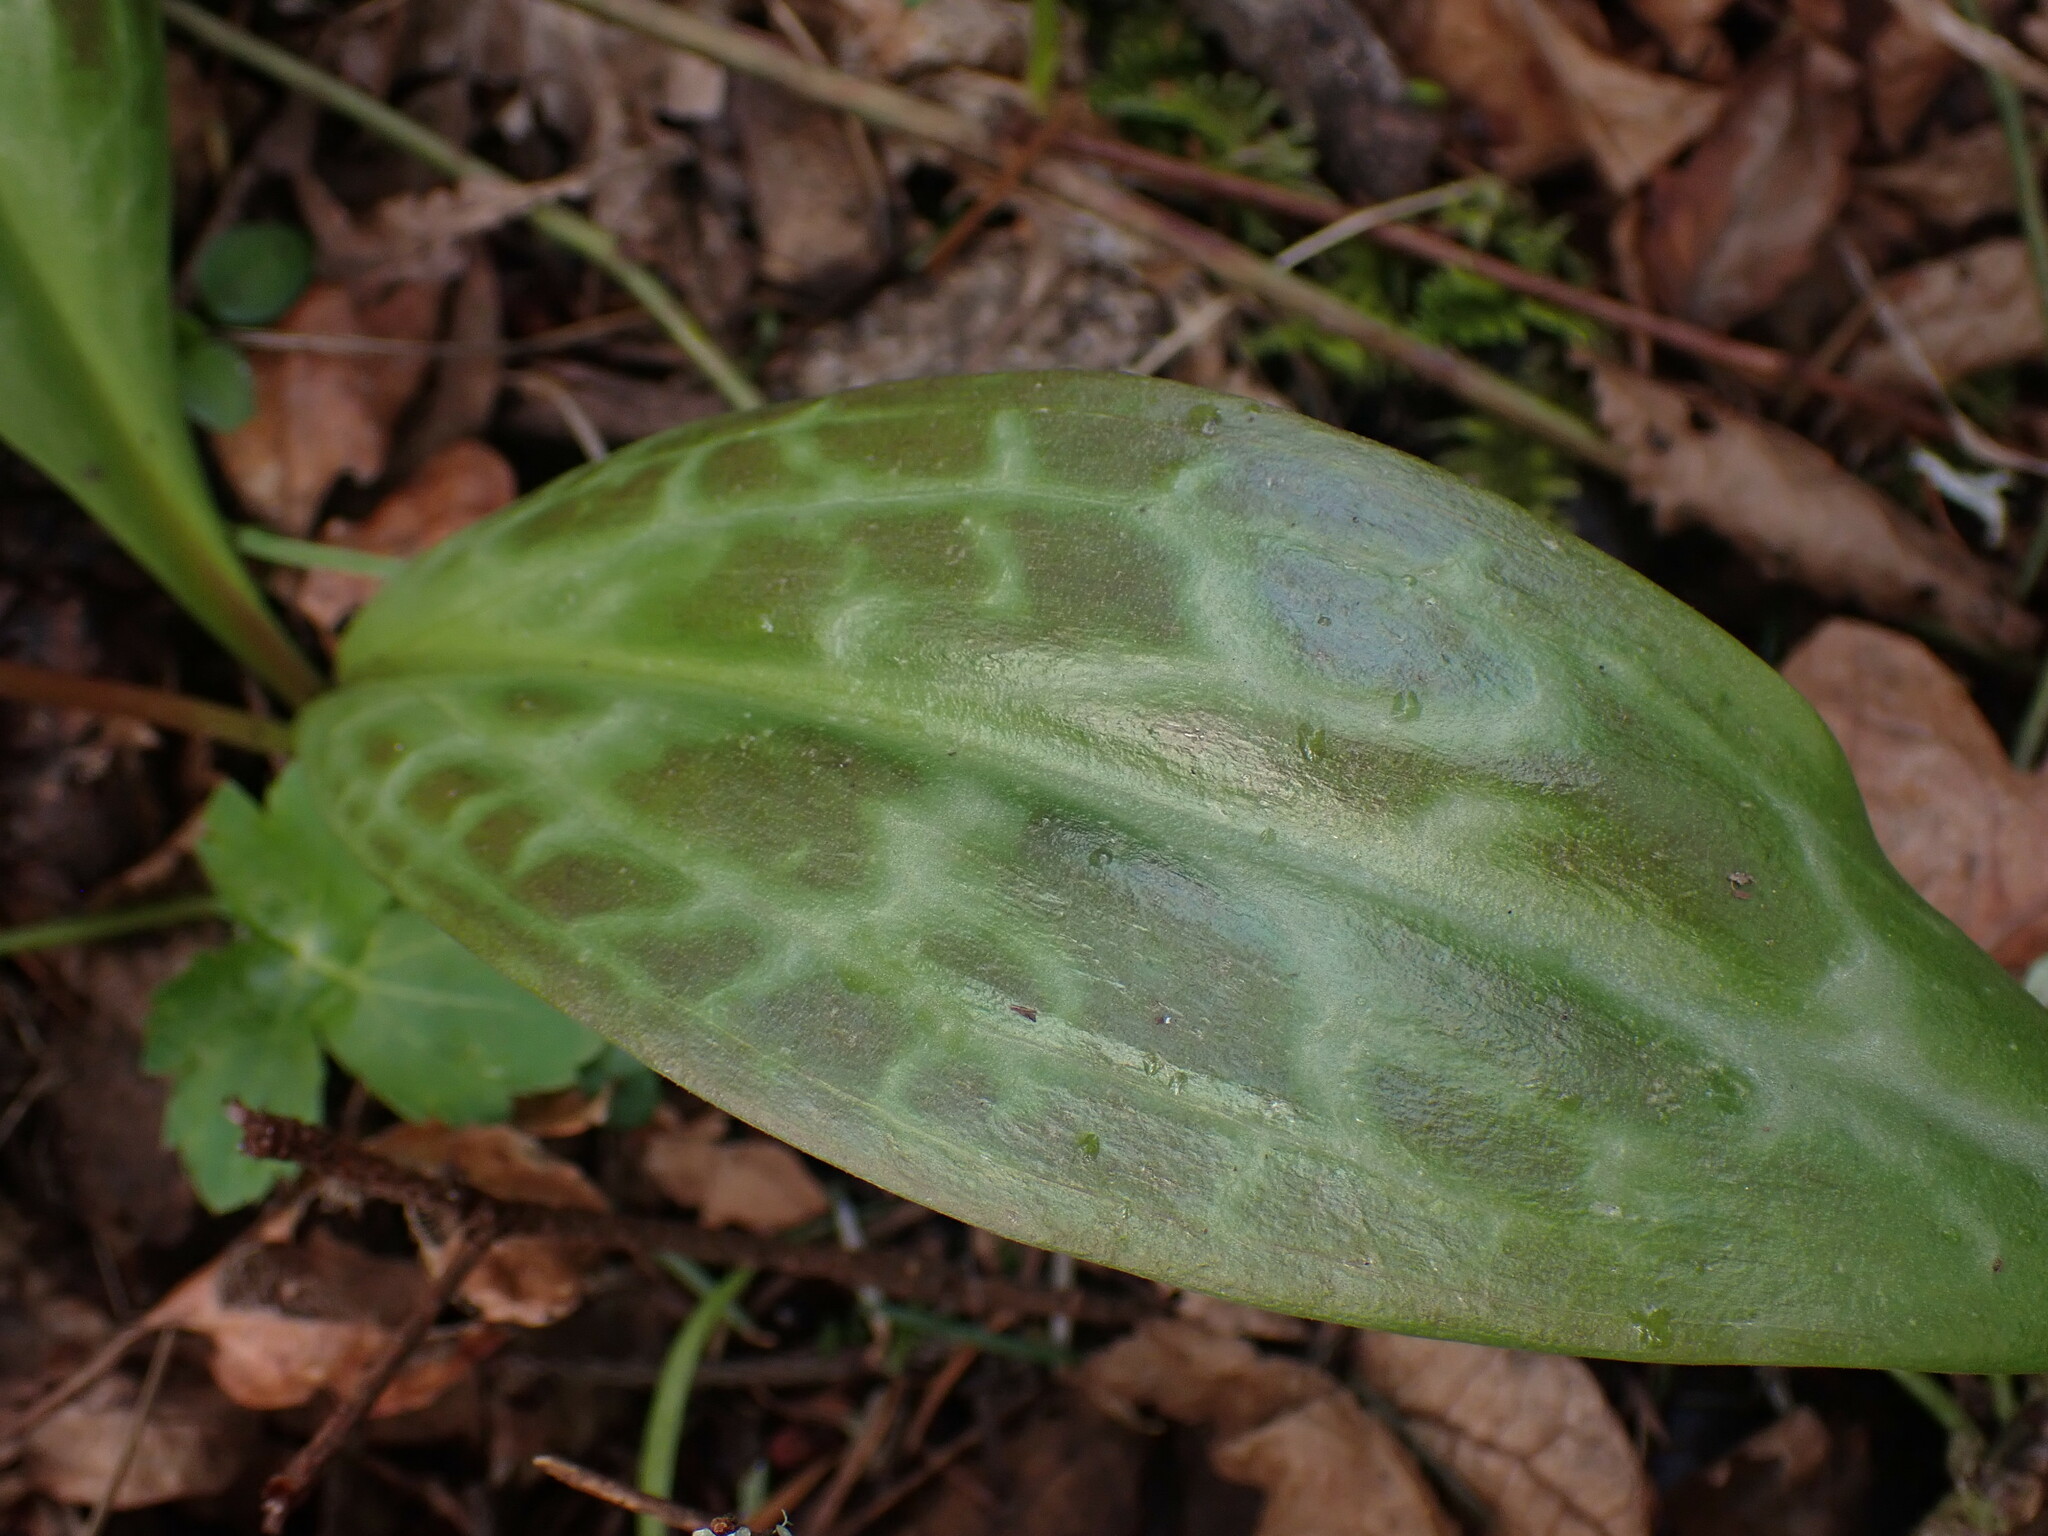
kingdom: Plantae
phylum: Tracheophyta
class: Liliopsida
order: Liliales
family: Liliaceae
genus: Erythronium
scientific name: Erythronium oregonum
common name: Giant adder's-tongue
